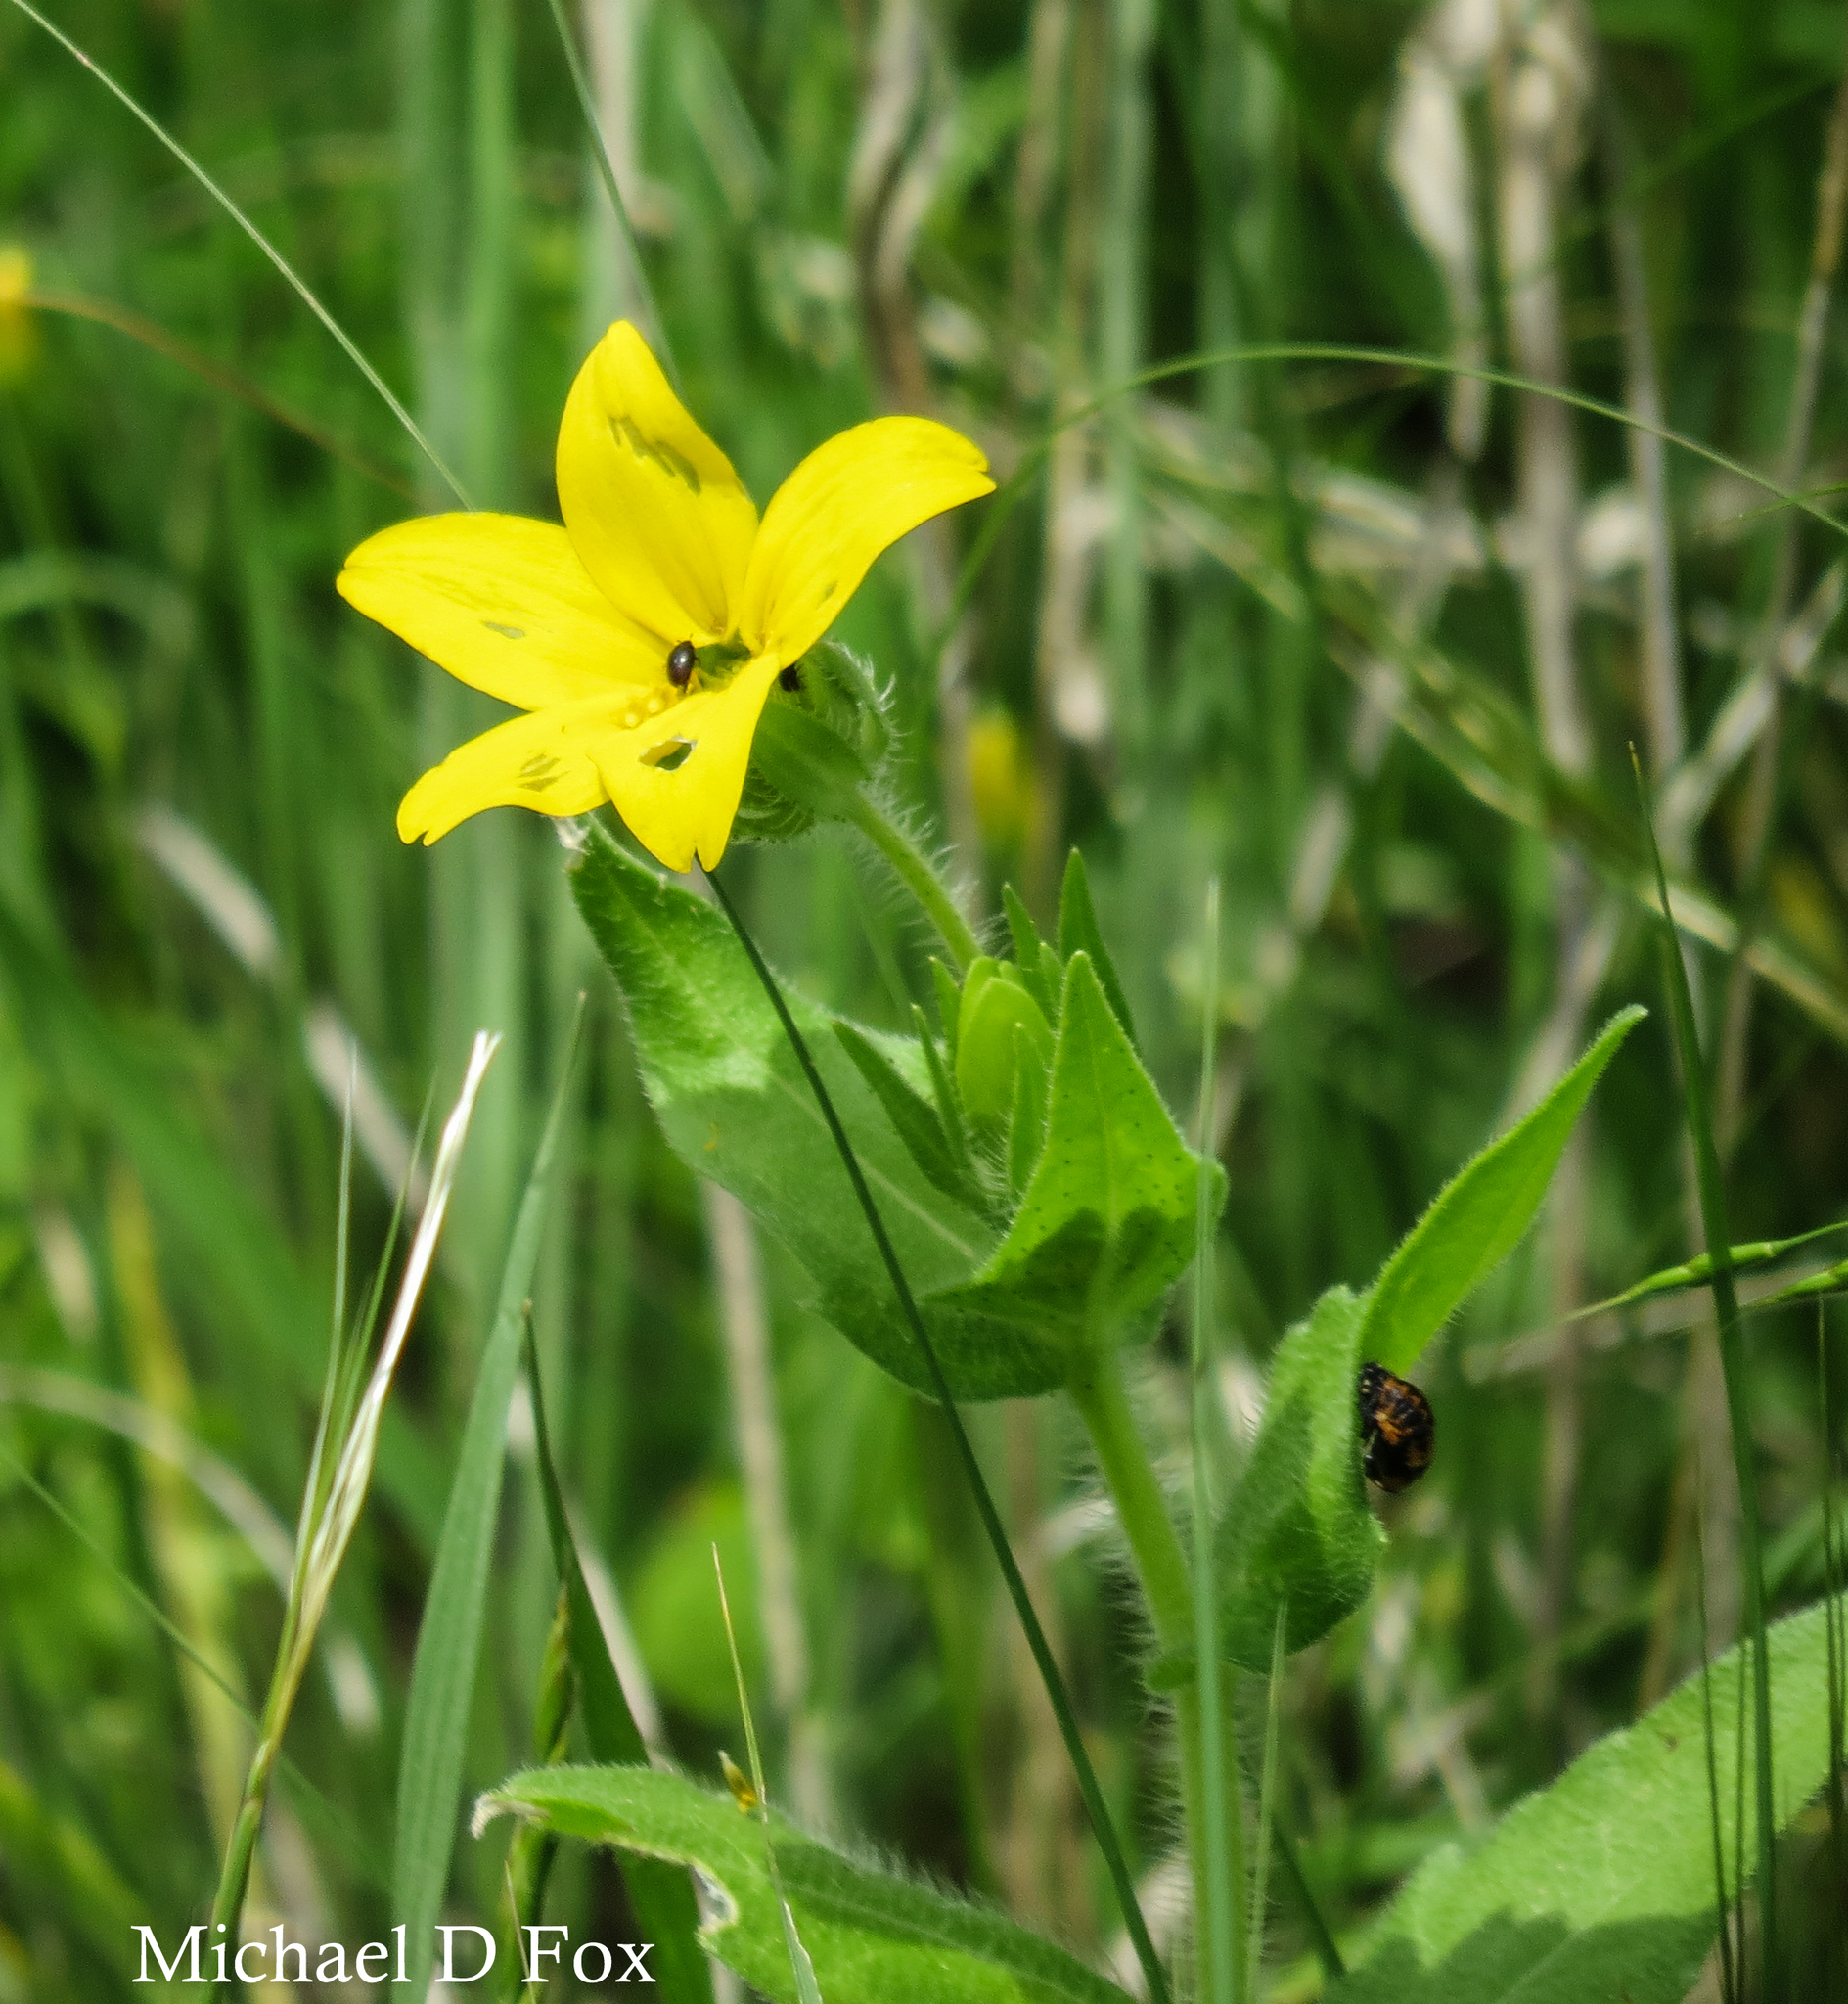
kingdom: Plantae
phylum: Tracheophyta
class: Magnoliopsida
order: Asterales
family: Asteraceae
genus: Lindheimera
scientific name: Lindheimera texana
